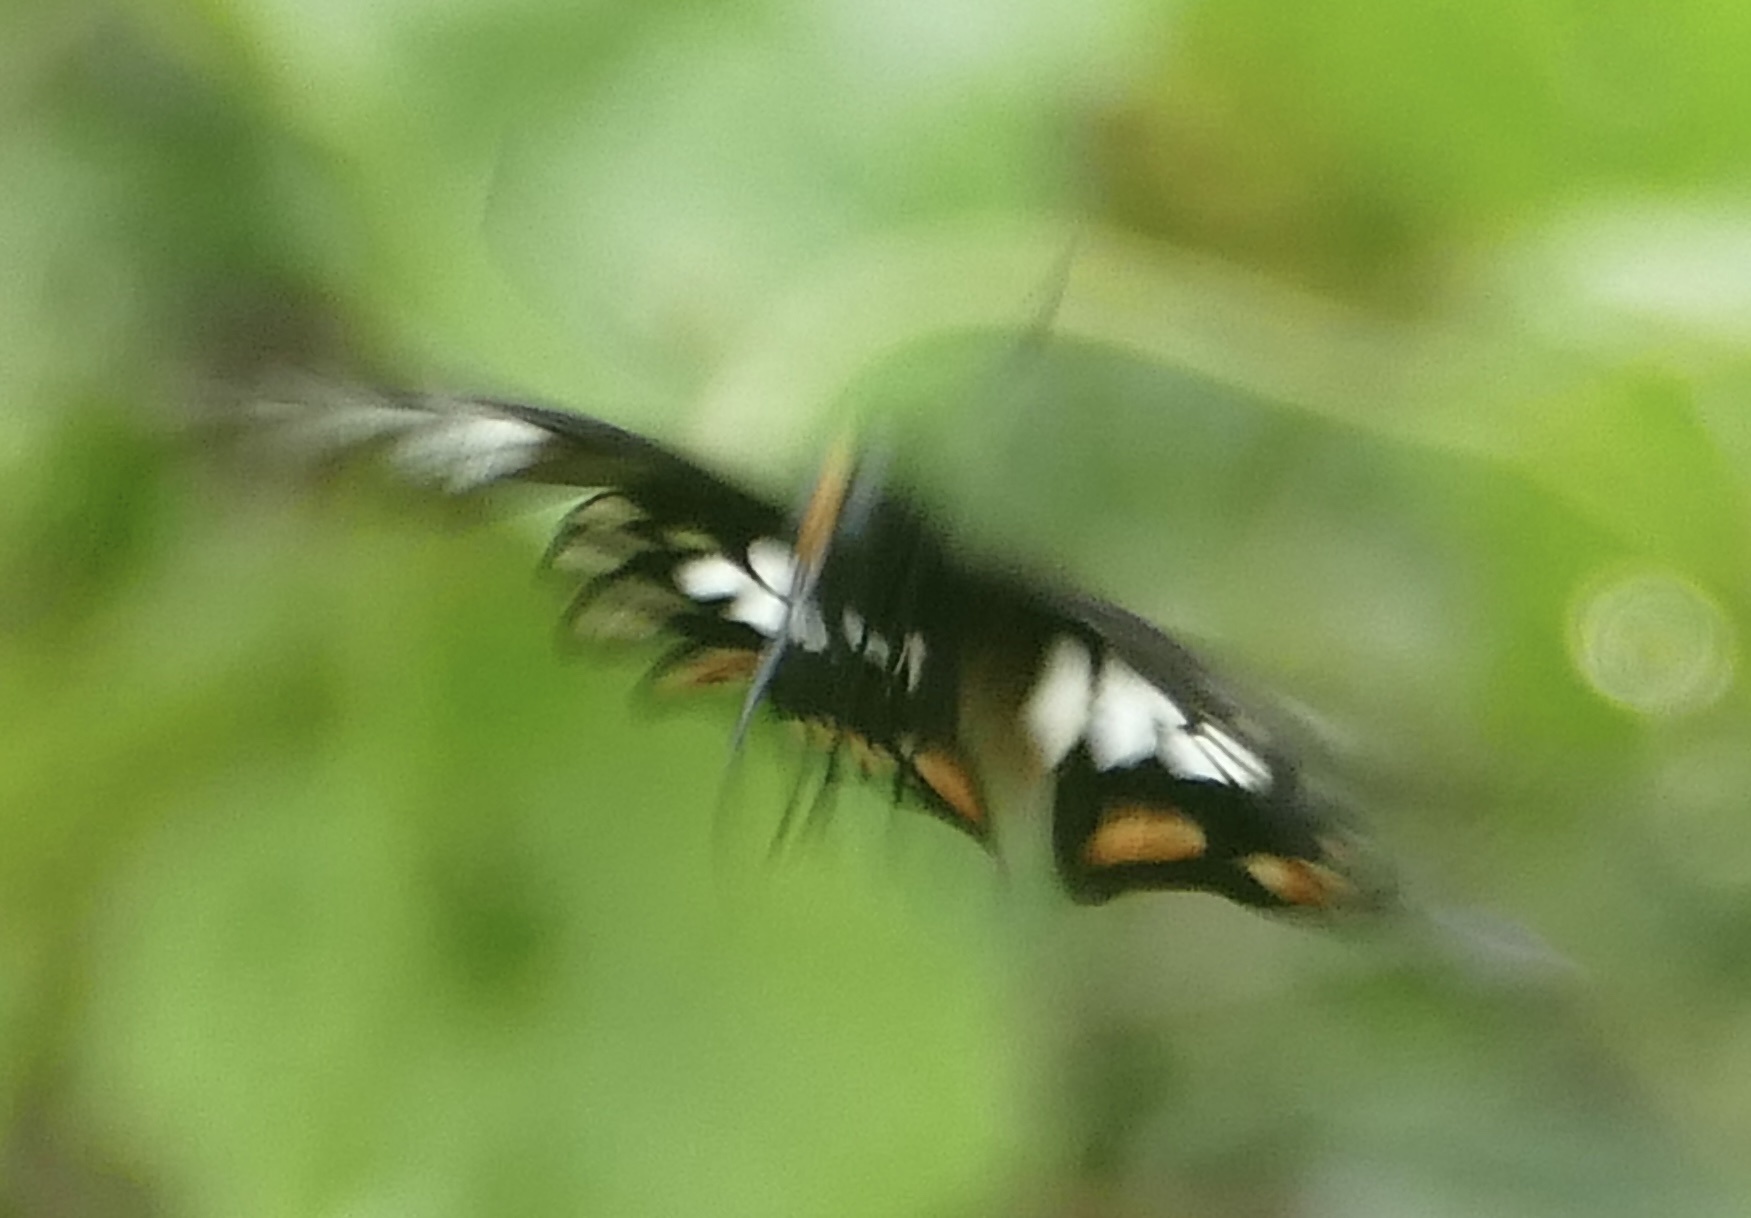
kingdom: Animalia
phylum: Arthropoda
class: Insecta
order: Lepidoptera
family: Papilionidae
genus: Pachliopta
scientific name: Pachliopta polyphontes
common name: Sulawesi rose
